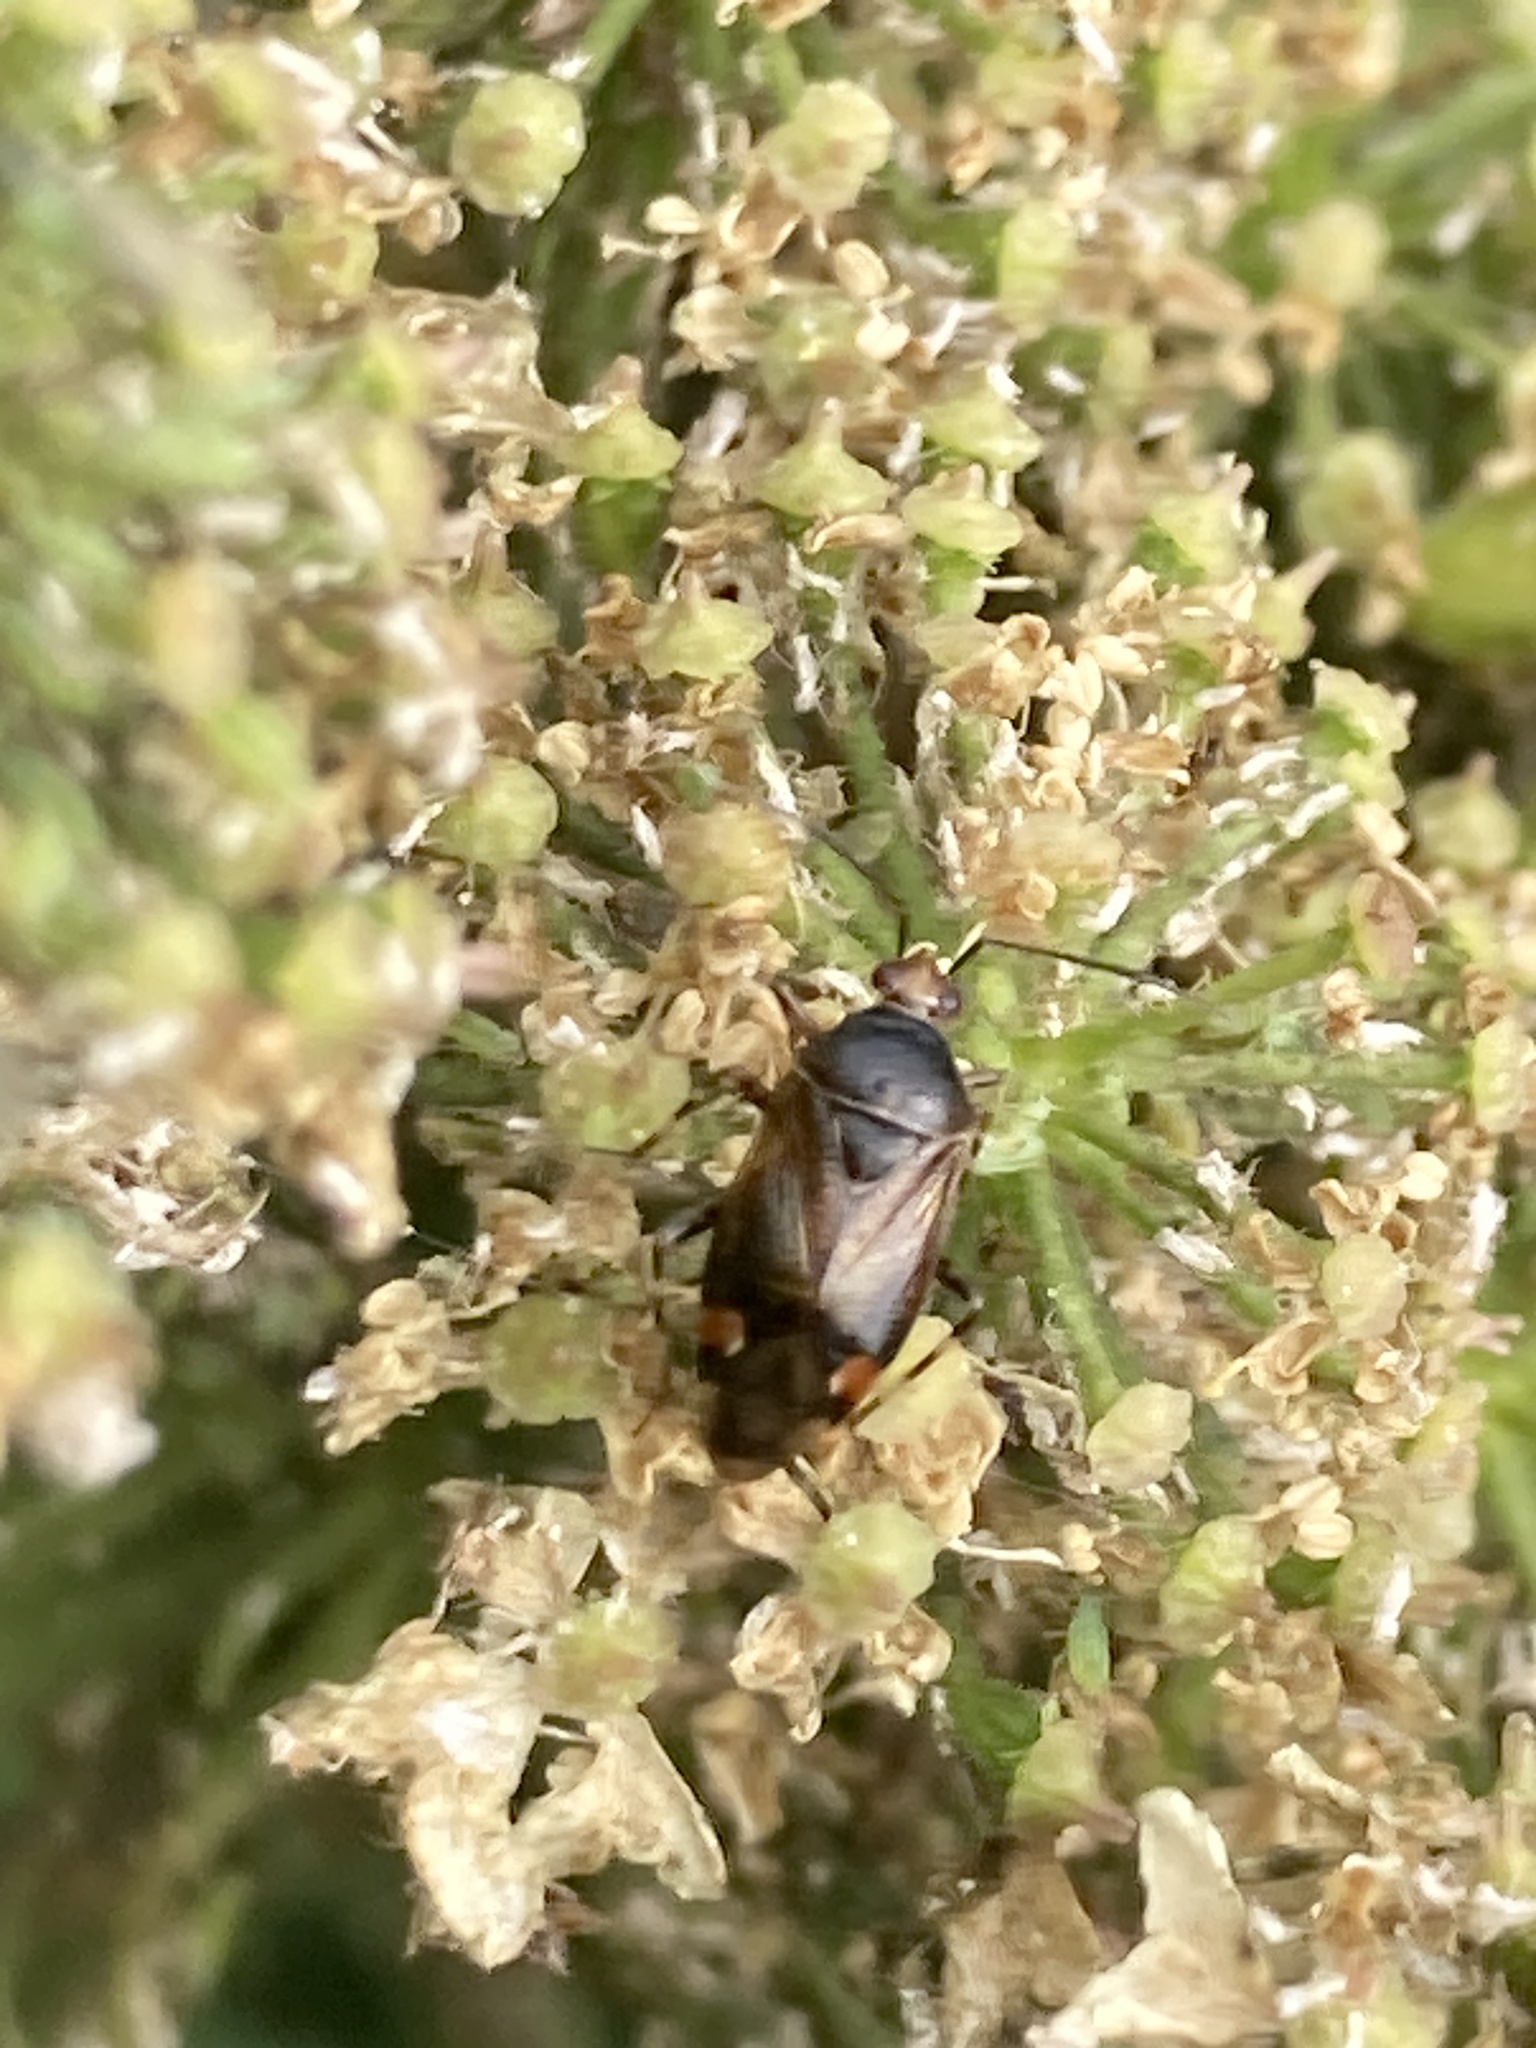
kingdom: Animalia
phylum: Arthropoda
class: Insecta
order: Hemiptera
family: Miridae
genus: Deraeocoris
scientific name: Deraeocoris flavilinea
